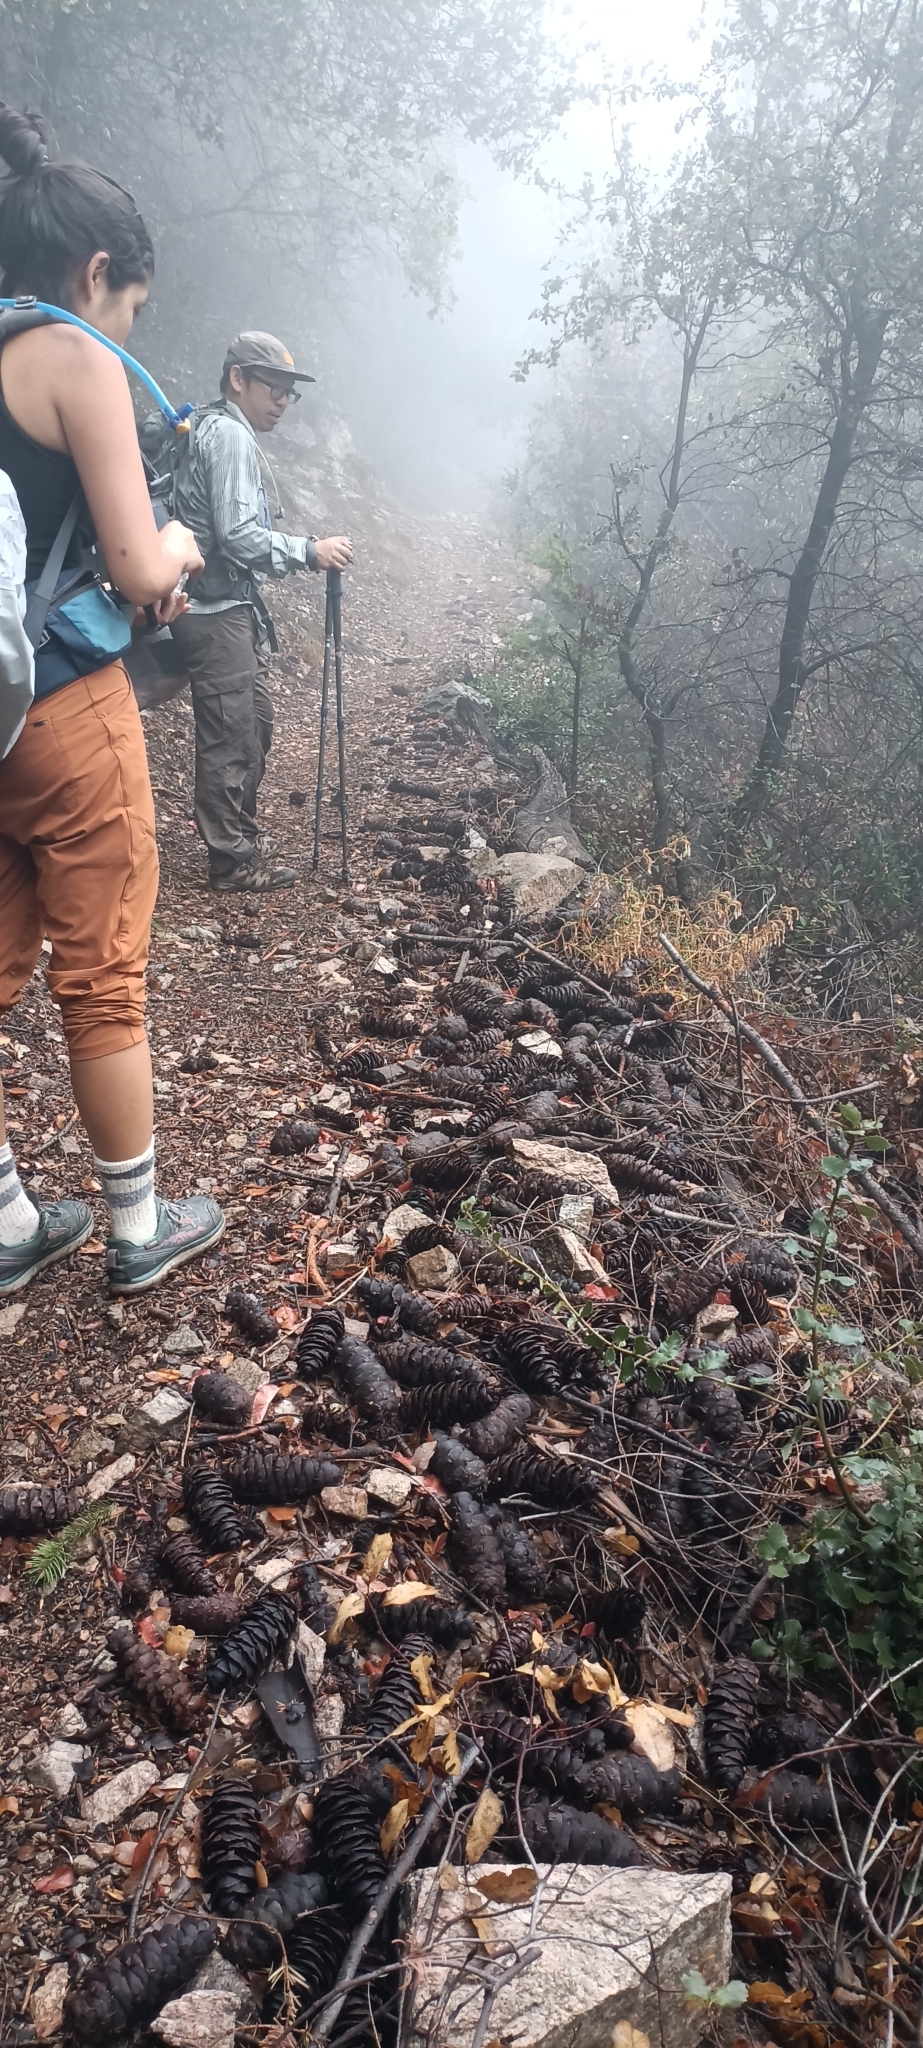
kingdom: Plantae
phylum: Tracheophyta
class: Pinopsida
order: Pinales
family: Pinaceae
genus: Pseudotsuga
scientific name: Pseudotsuga macrocarpa
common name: Big-cone douglas-fir
